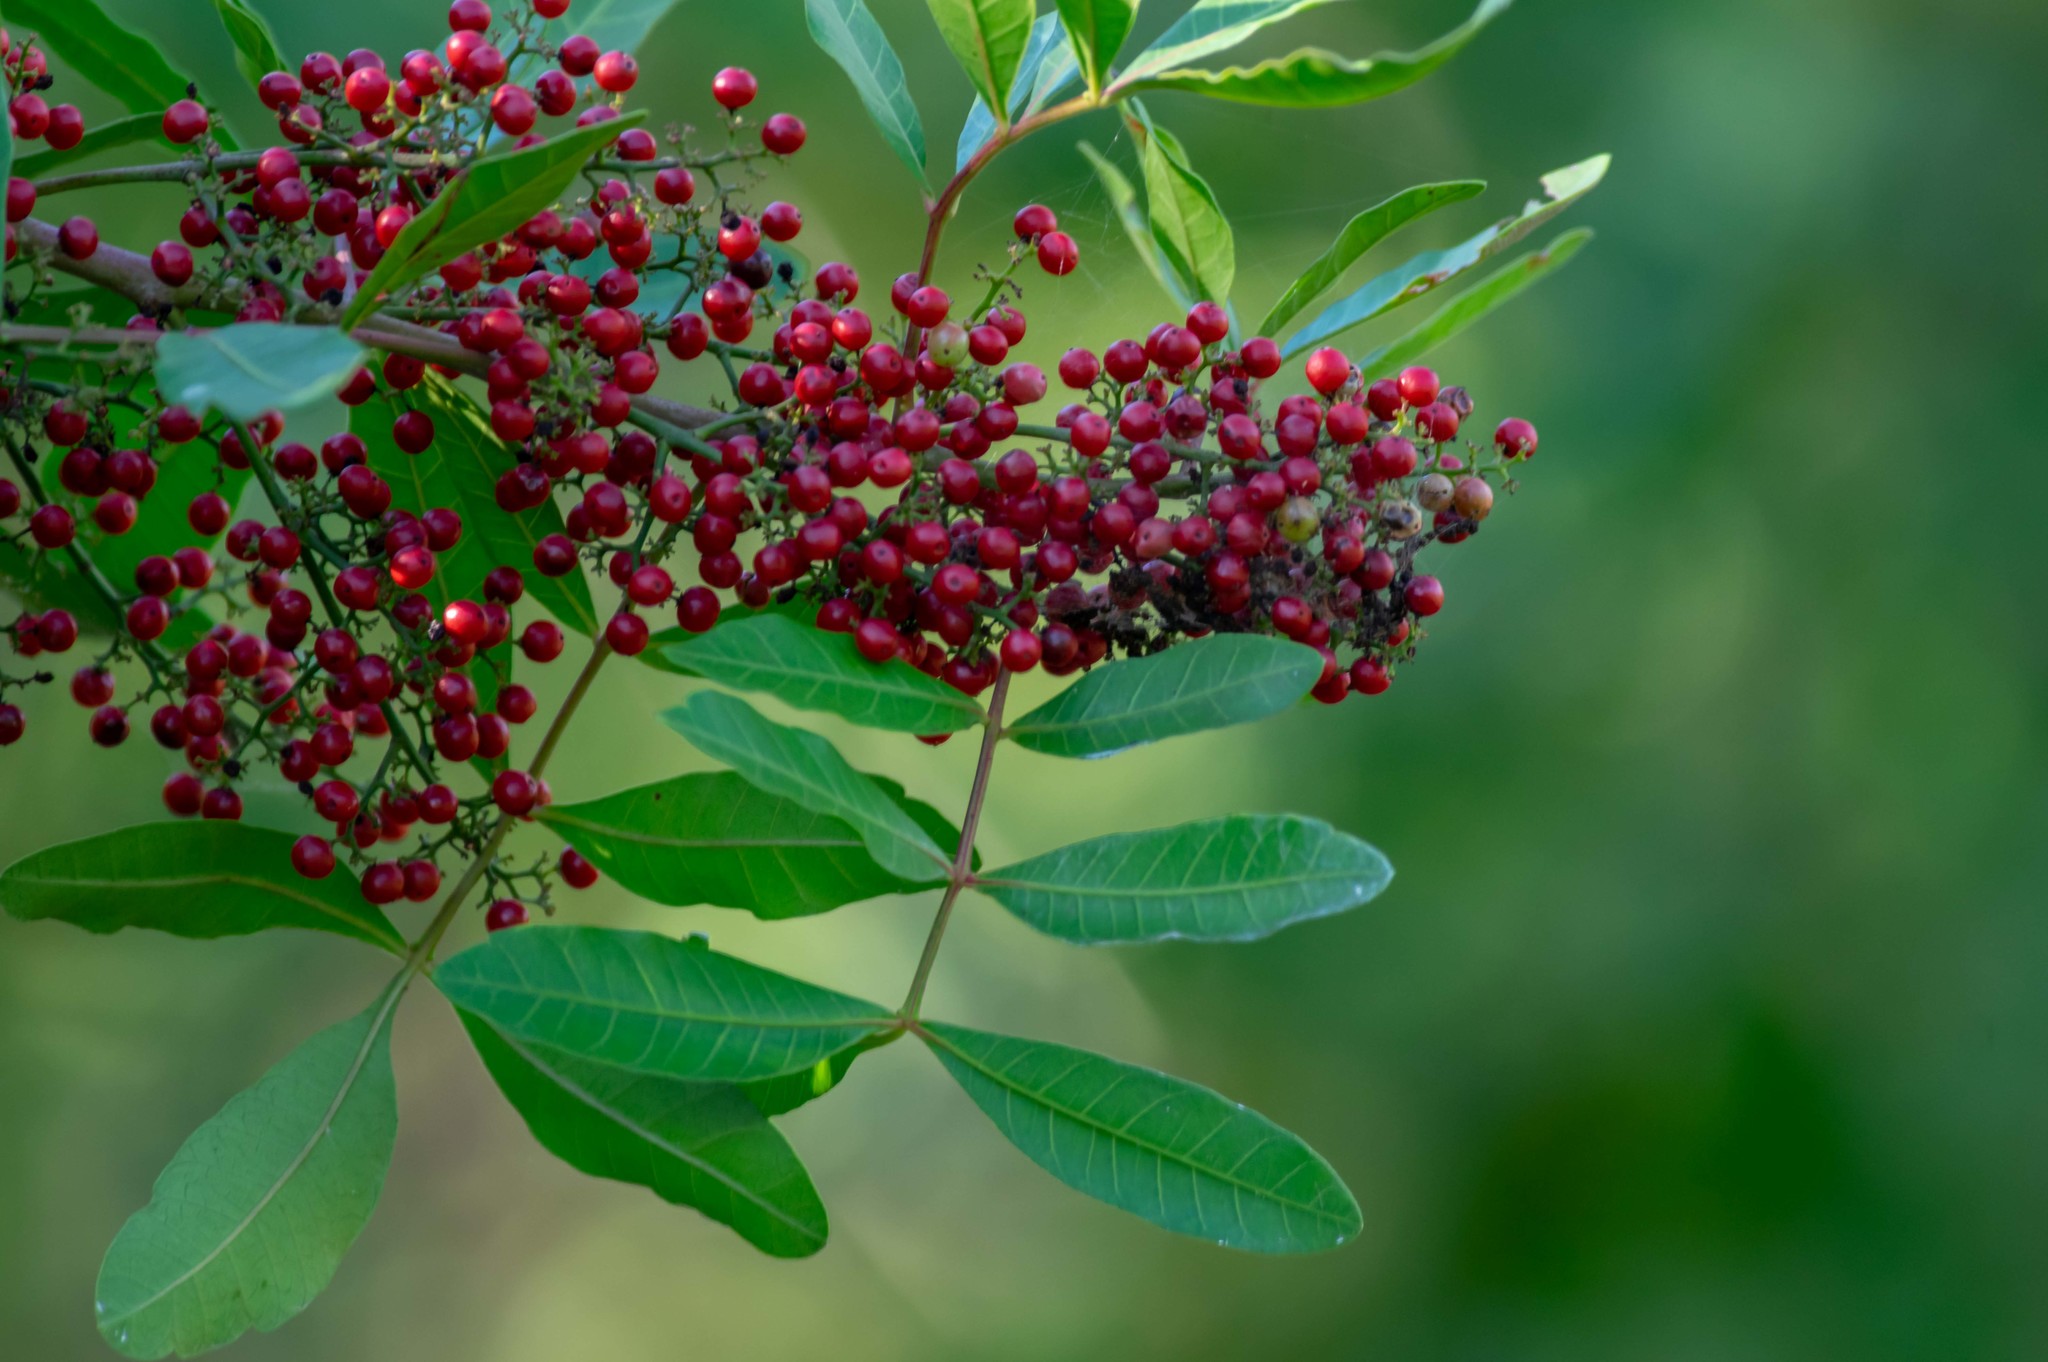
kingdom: Plantae
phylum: Tracheophyta
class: Magnoliopsida
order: Sapindales
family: Anacardiaceae
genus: Schinus
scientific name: Schinus terebinthifolia
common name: Brazilian peppertree
